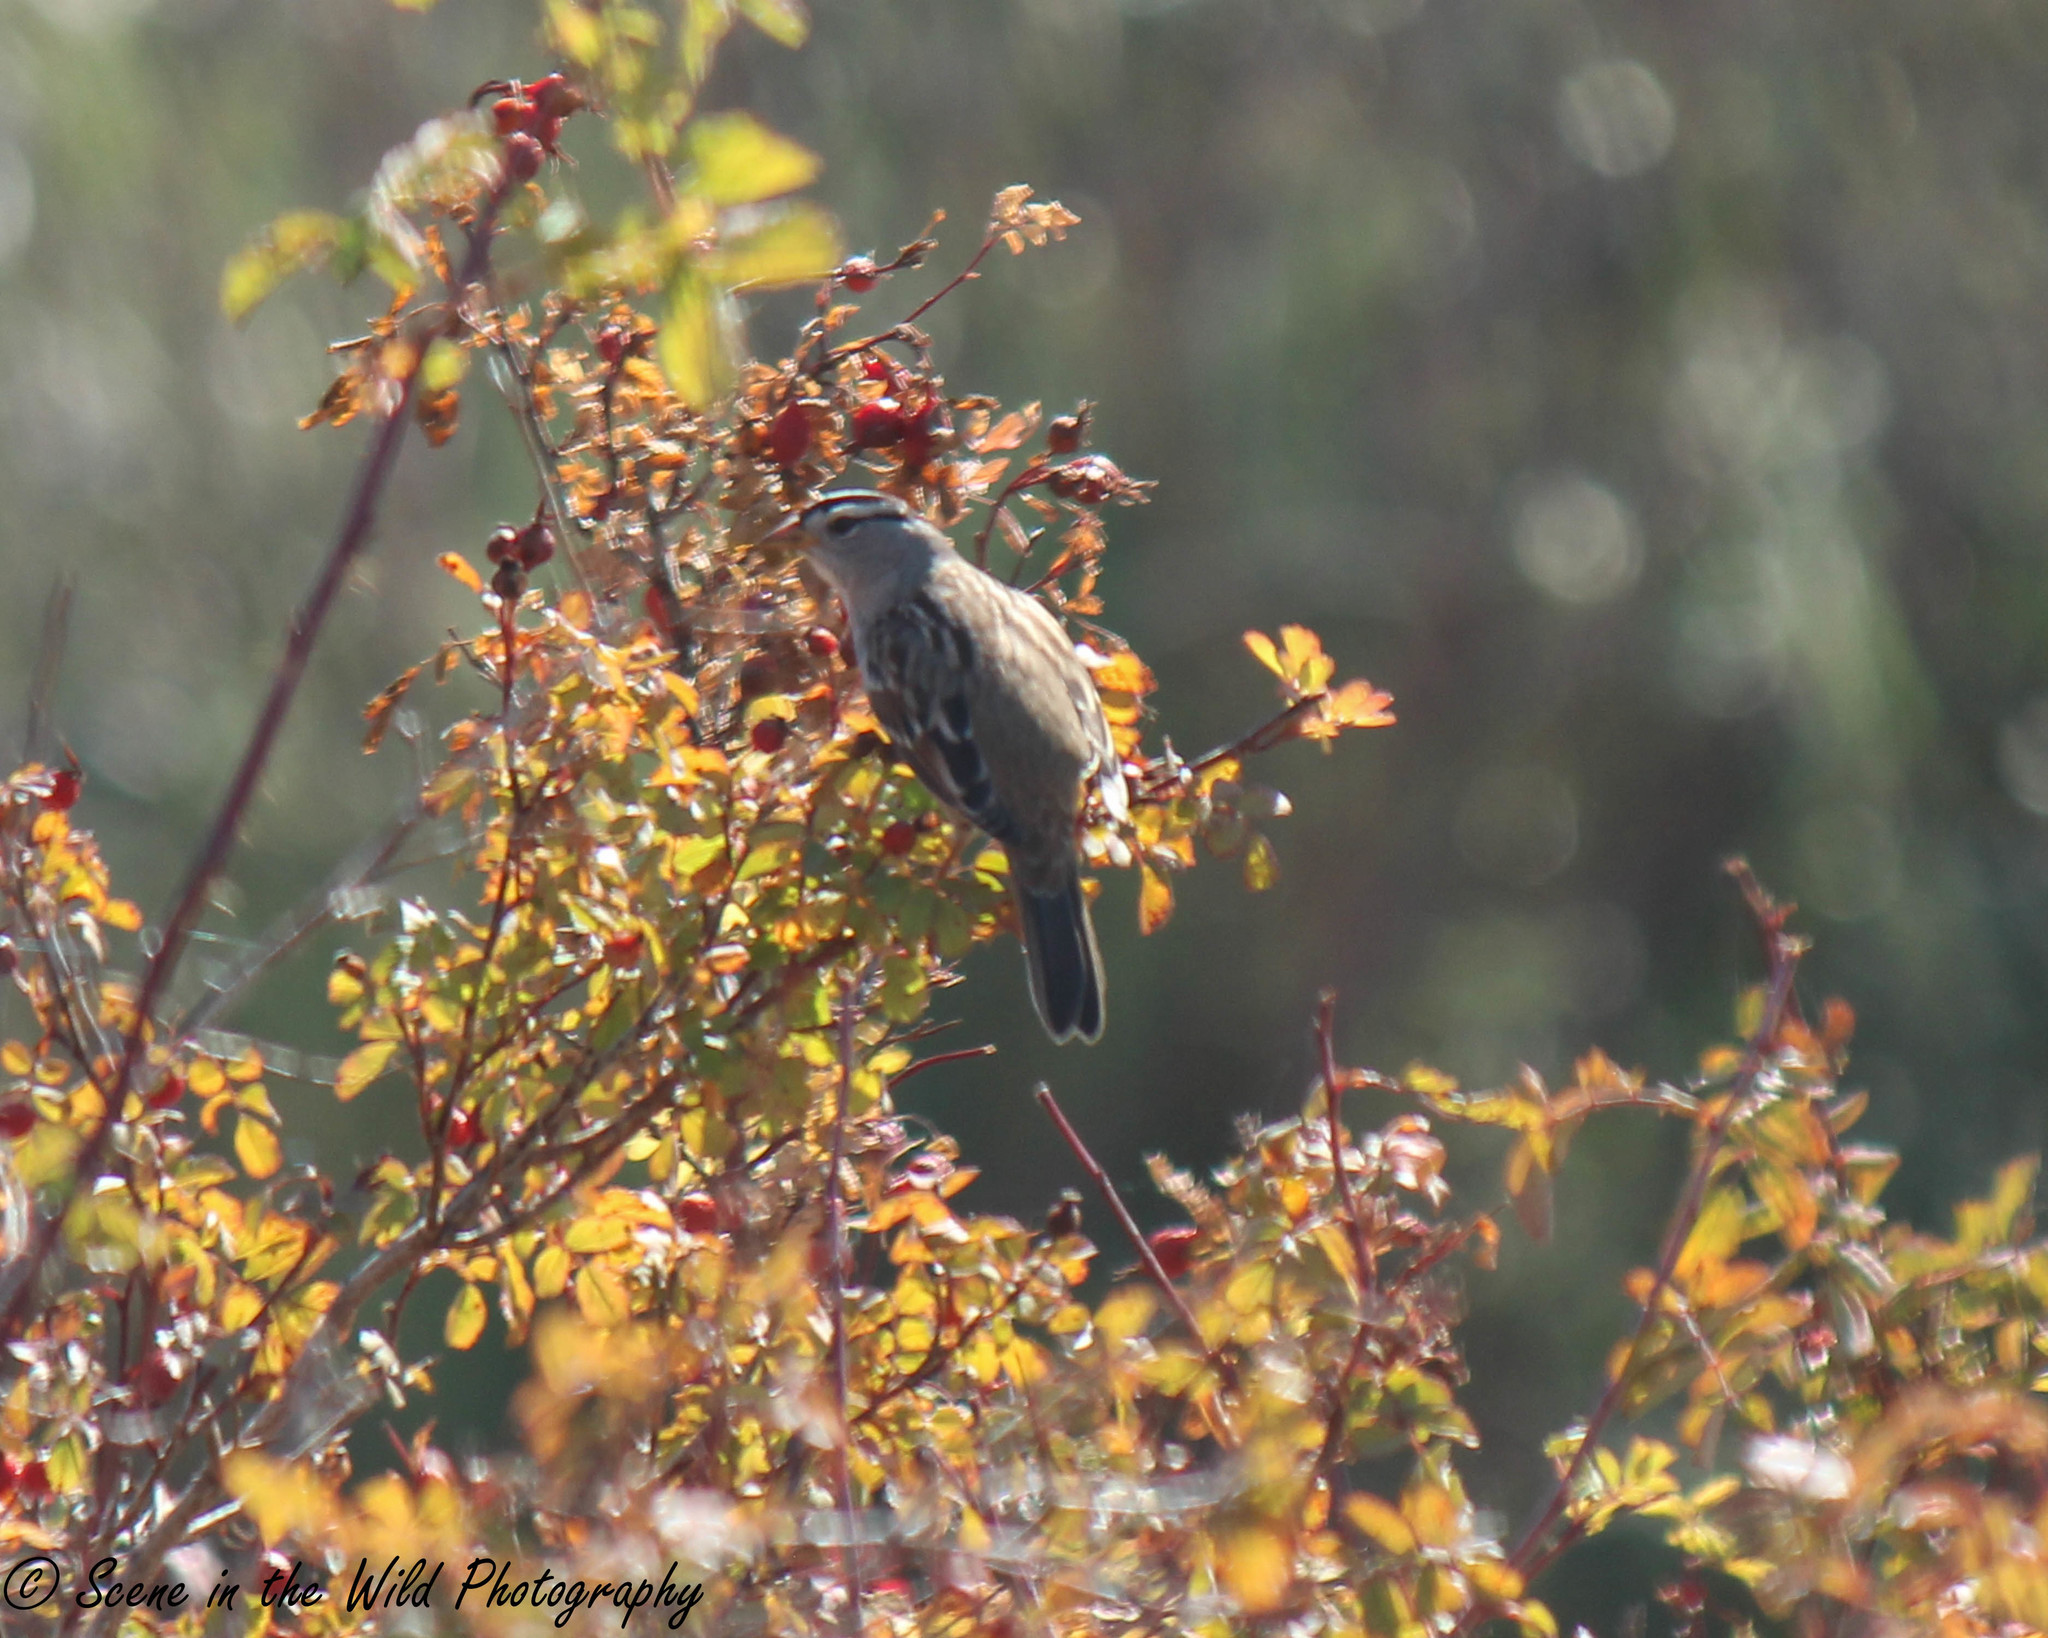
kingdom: Animalia
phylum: Chordata
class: Aves
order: Passeriformes
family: Passerellidae
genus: Zonotrichia
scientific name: Zonotrichia leucophrys
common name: White-crowned sparrow
